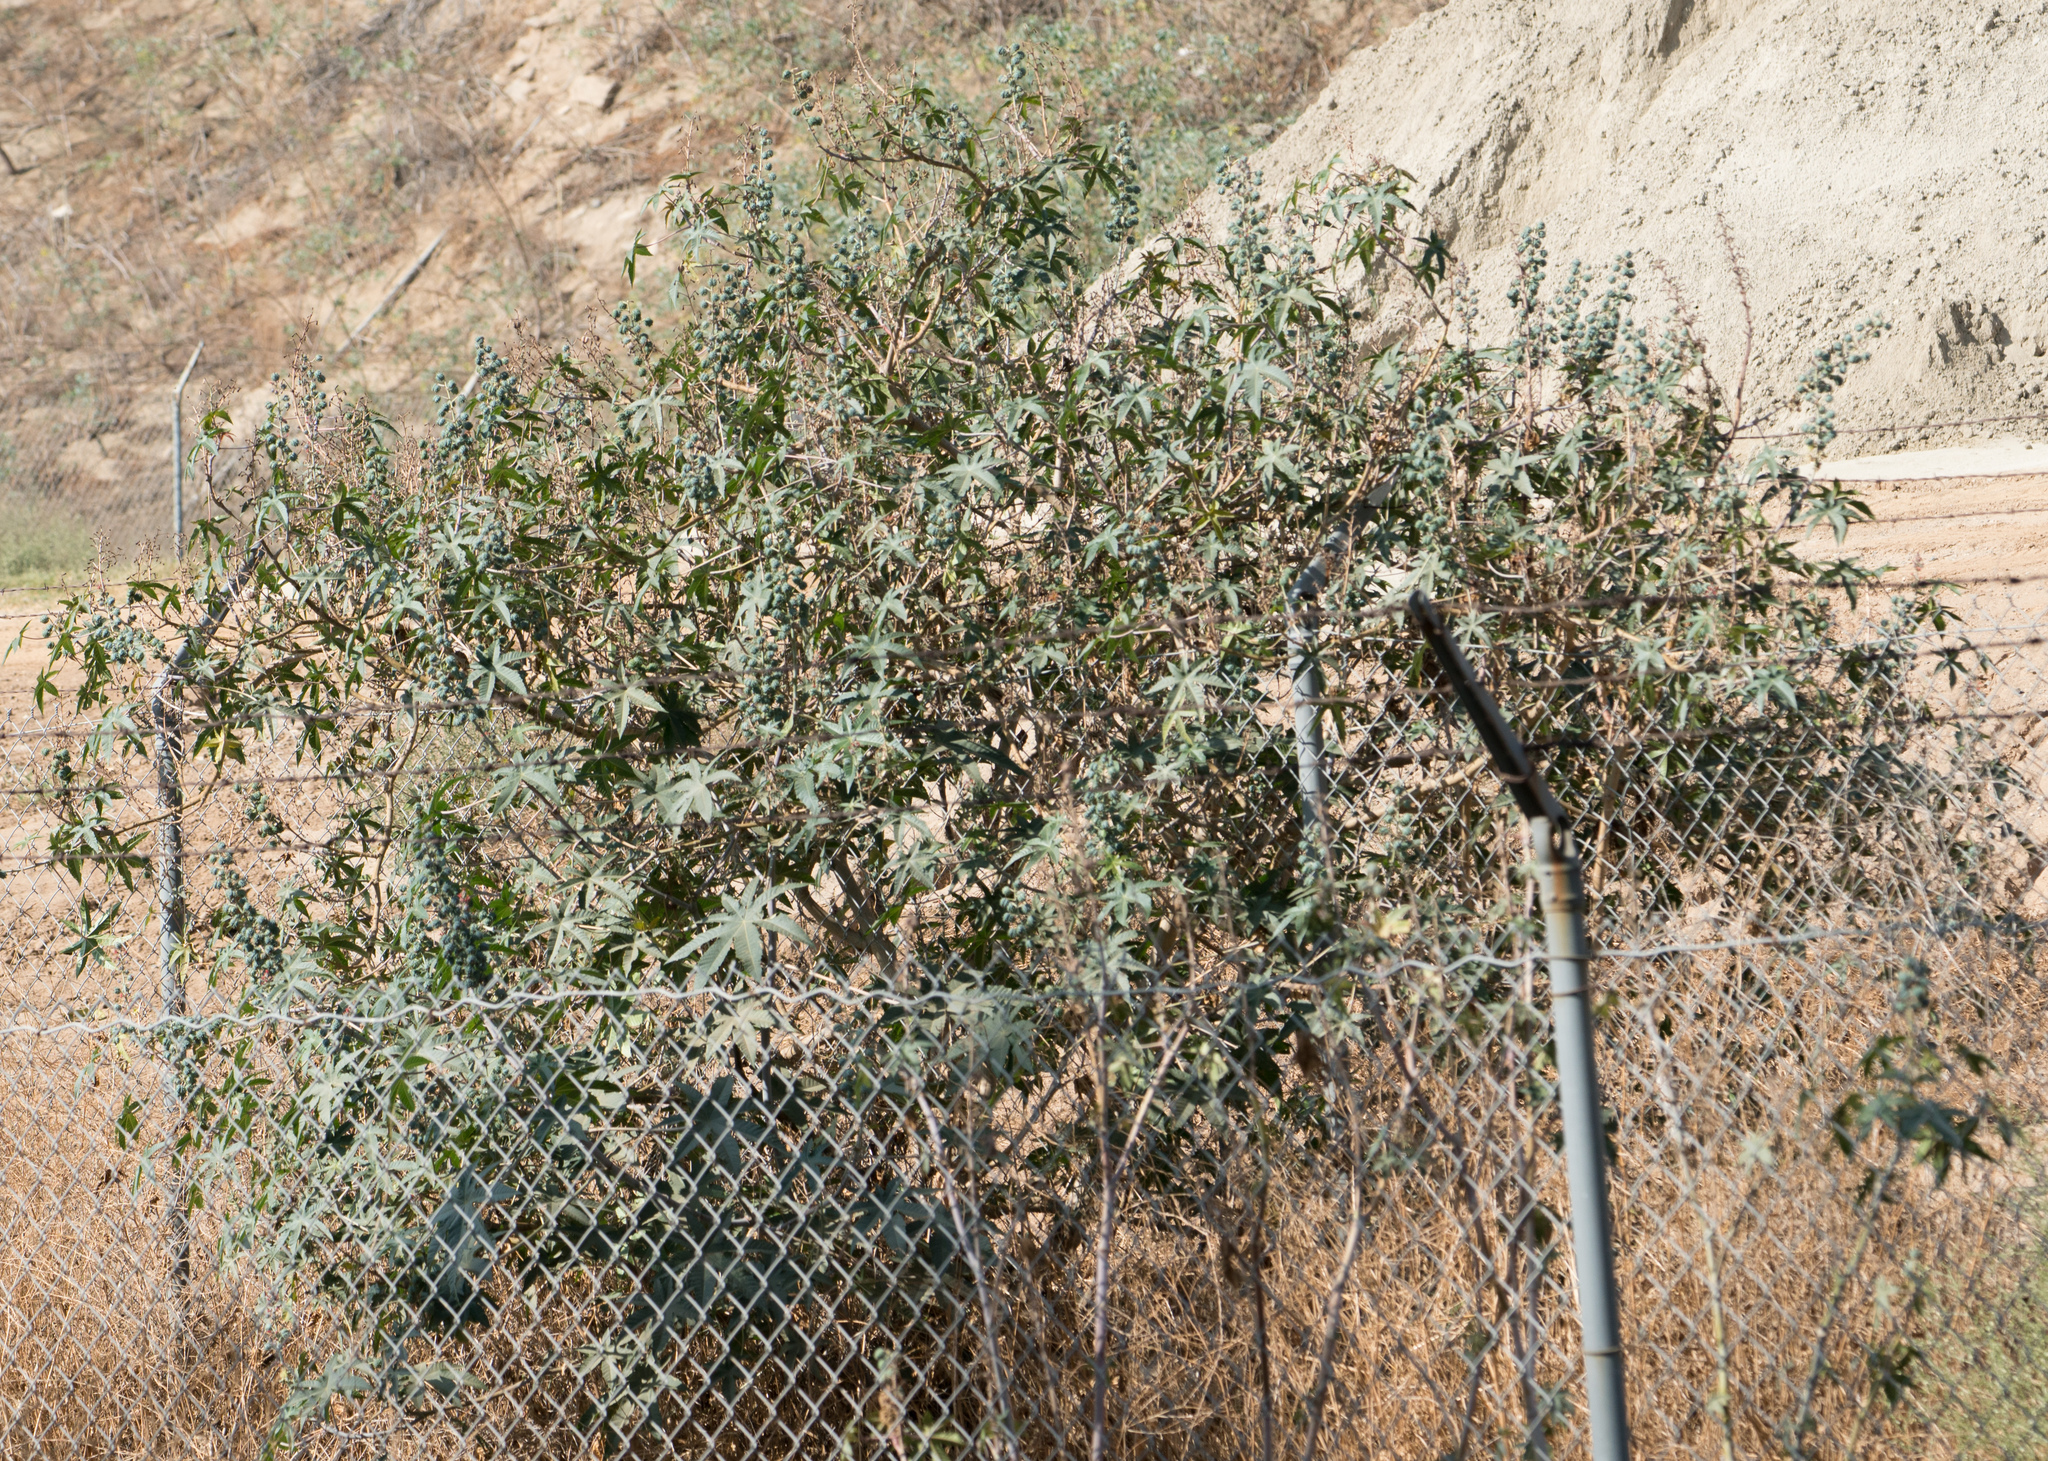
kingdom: Plantae
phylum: Tracheophyta
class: Magnoliopsida
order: Malpighiales
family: Euphorbiaceae
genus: Ricinus
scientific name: Ricinus communis
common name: Castor-oil-plant
